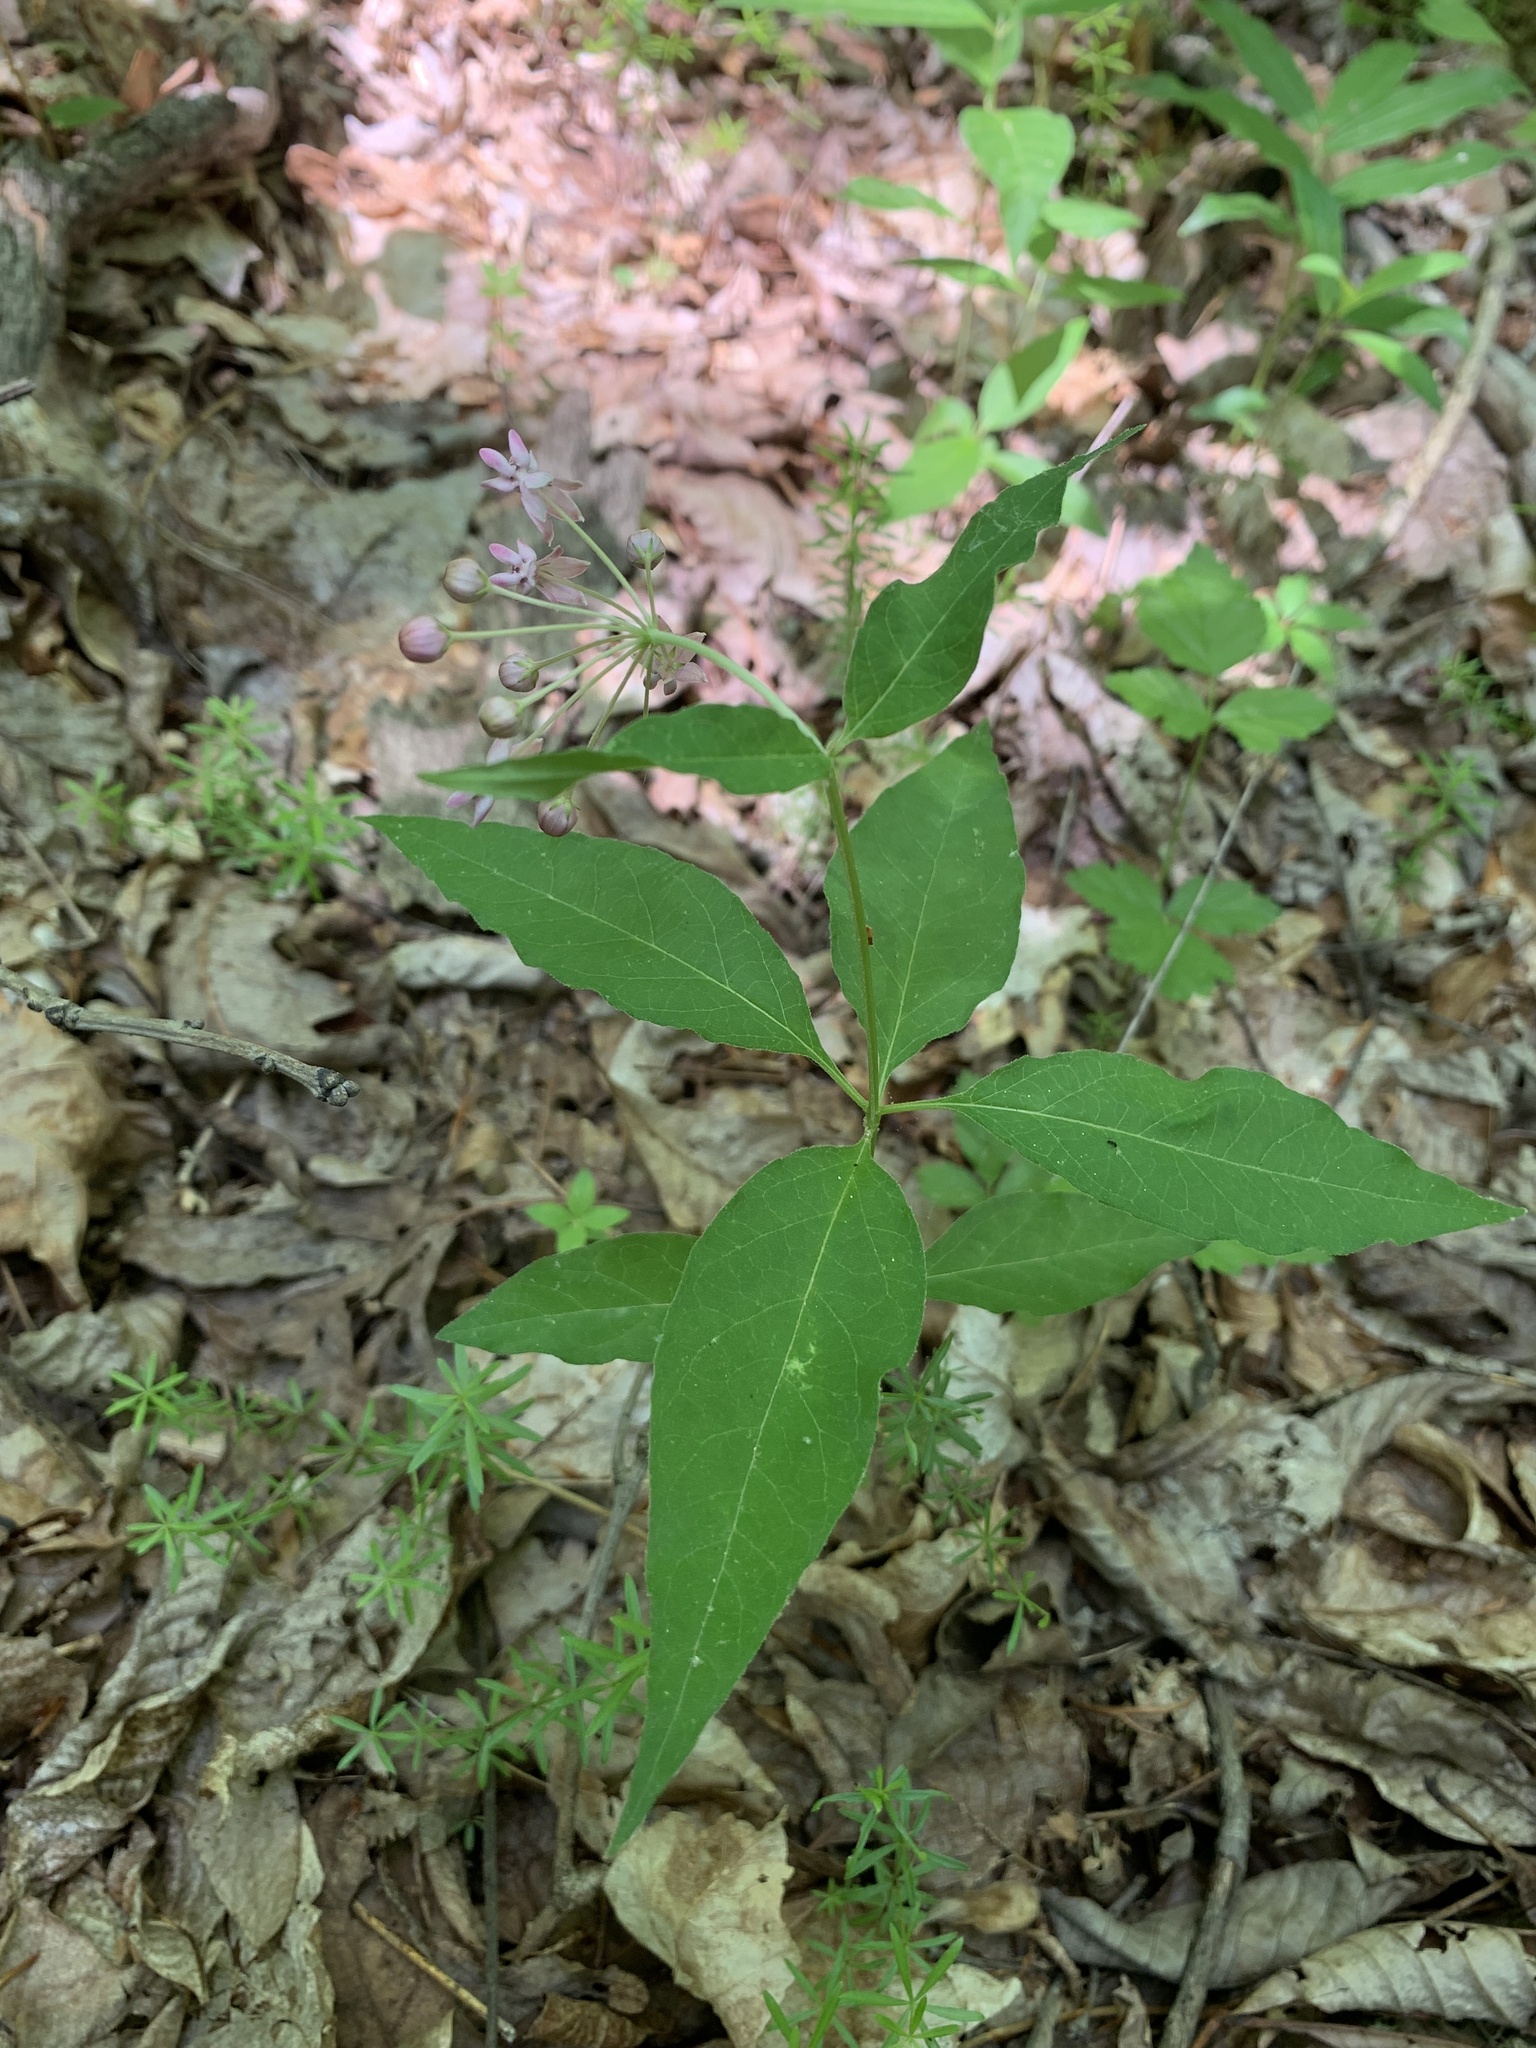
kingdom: Plantae
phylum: Tracheophyta
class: Magnoliopsida
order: Gentianales
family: Apocynaceae
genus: Asclepias
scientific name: Asclepias quadrifolia
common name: Whorled milkweed
